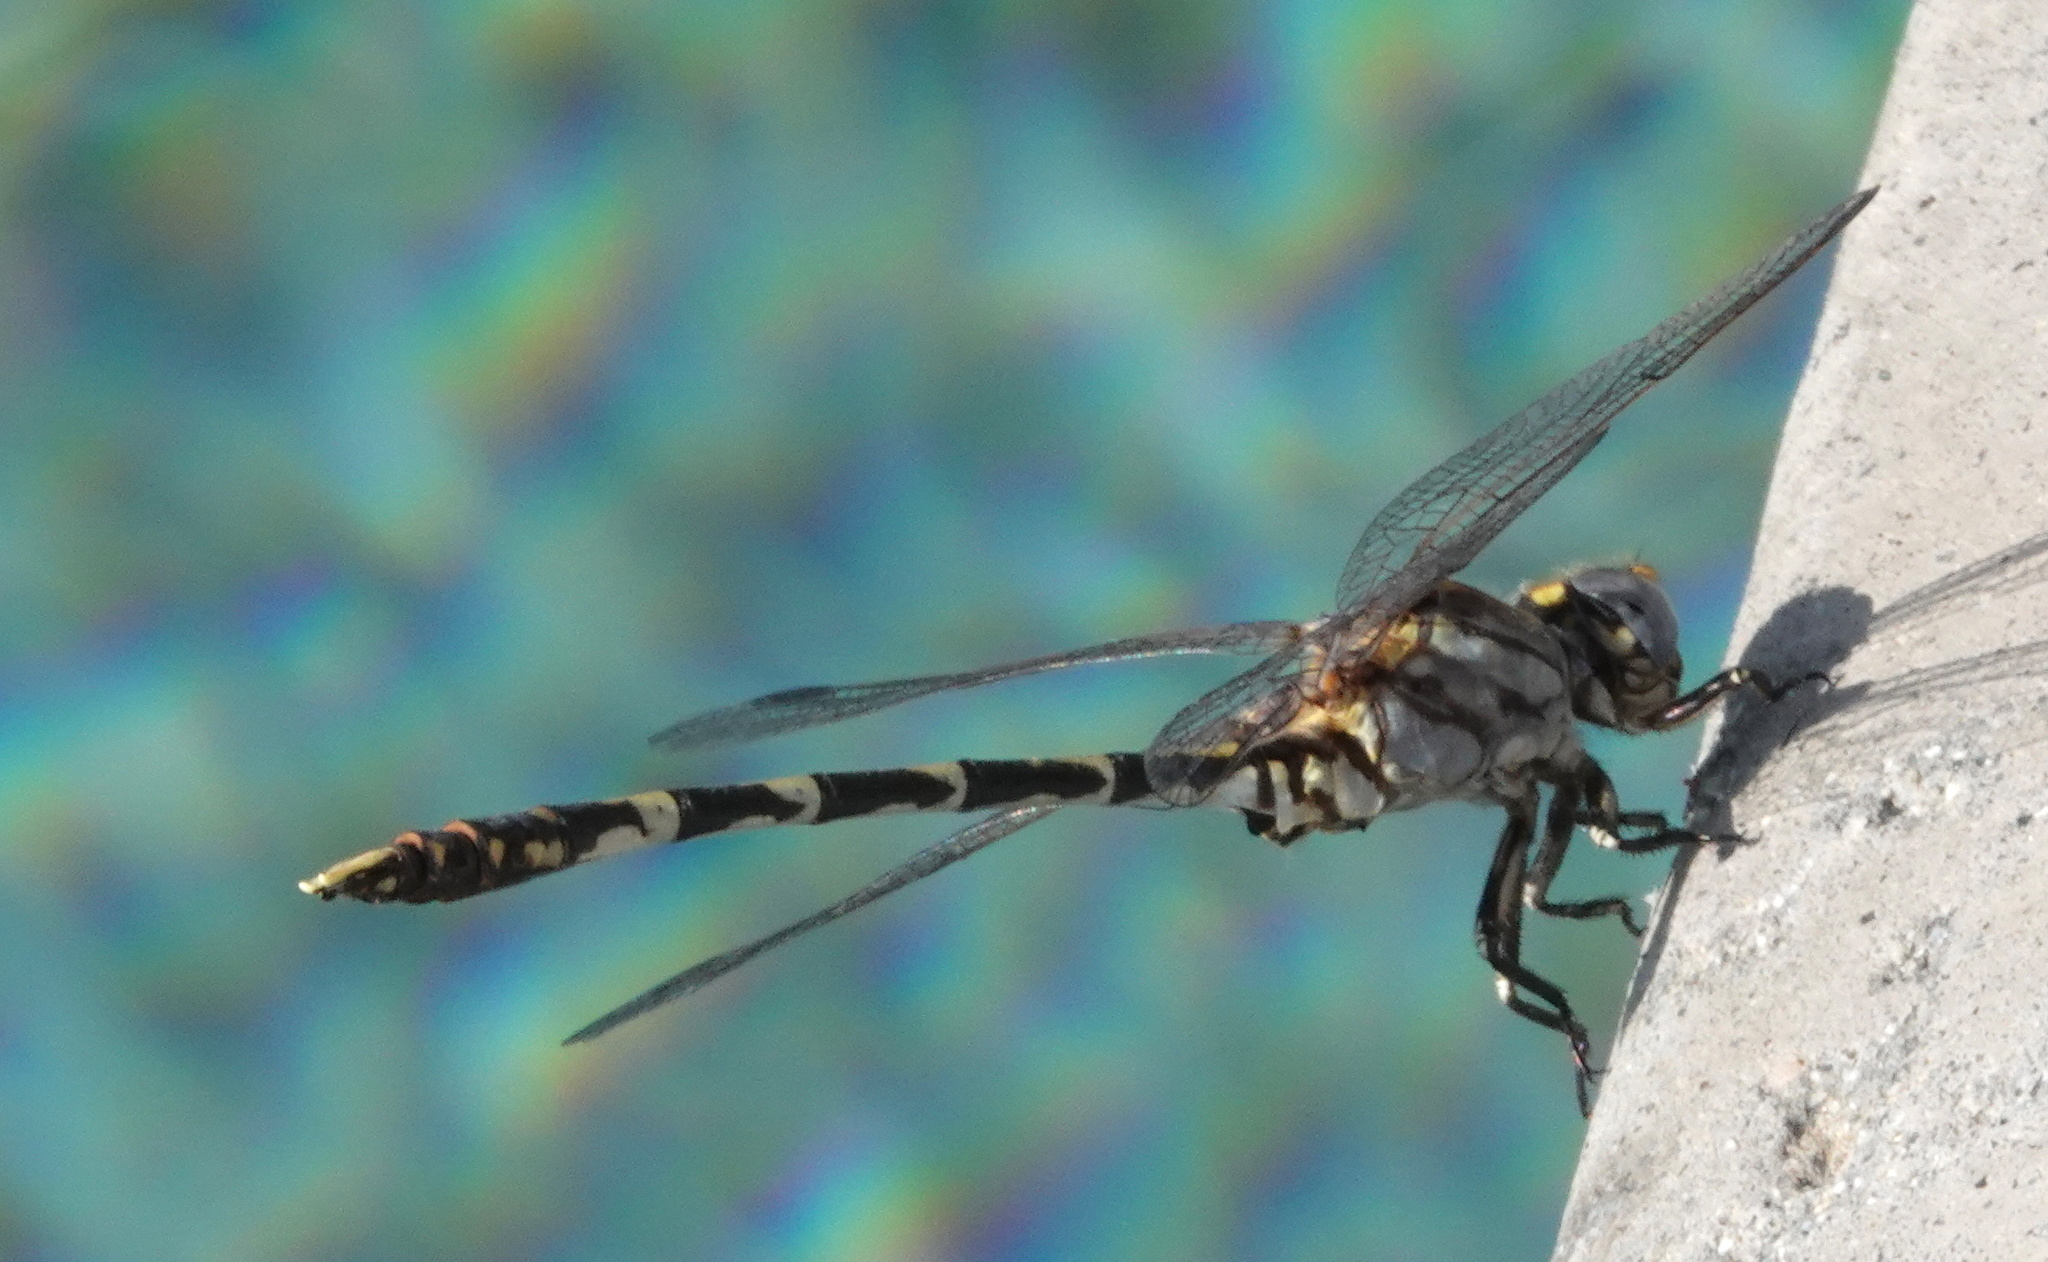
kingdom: Animalia
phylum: Arthropoda
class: Insecta
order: Odonata
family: Gomphidae
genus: Progomphus
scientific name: Progomphus borealis
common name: Gray sanddragon
